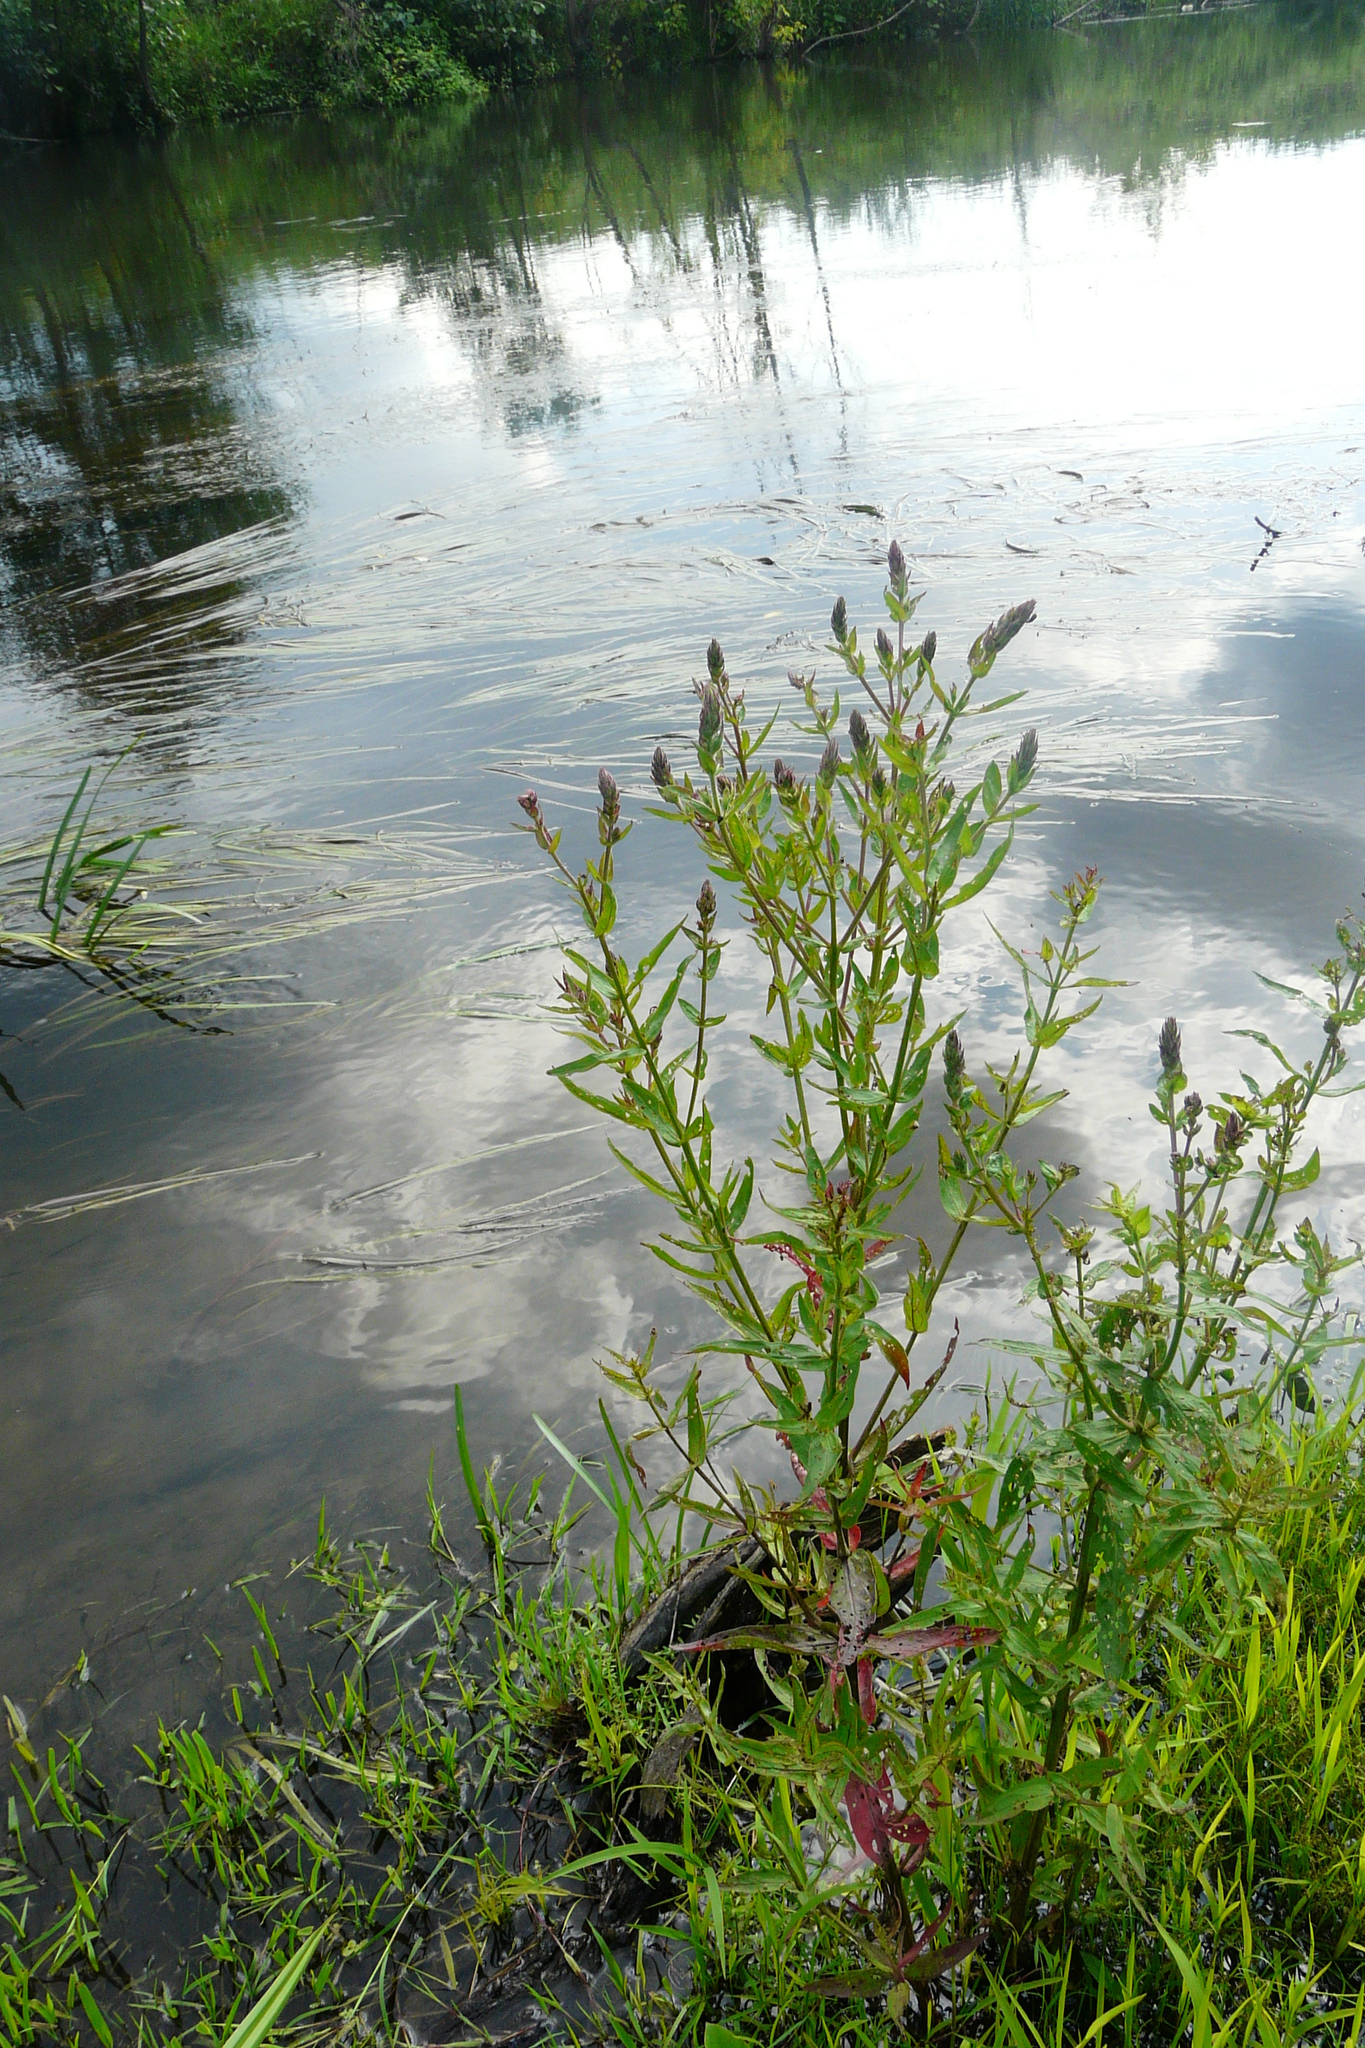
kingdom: Plantae
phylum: Tracheophyta
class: Magnoliopsida
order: Myrtales
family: Lythraceae
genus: Lythrum
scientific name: Lythrum salicaria
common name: Purple loosestrife
